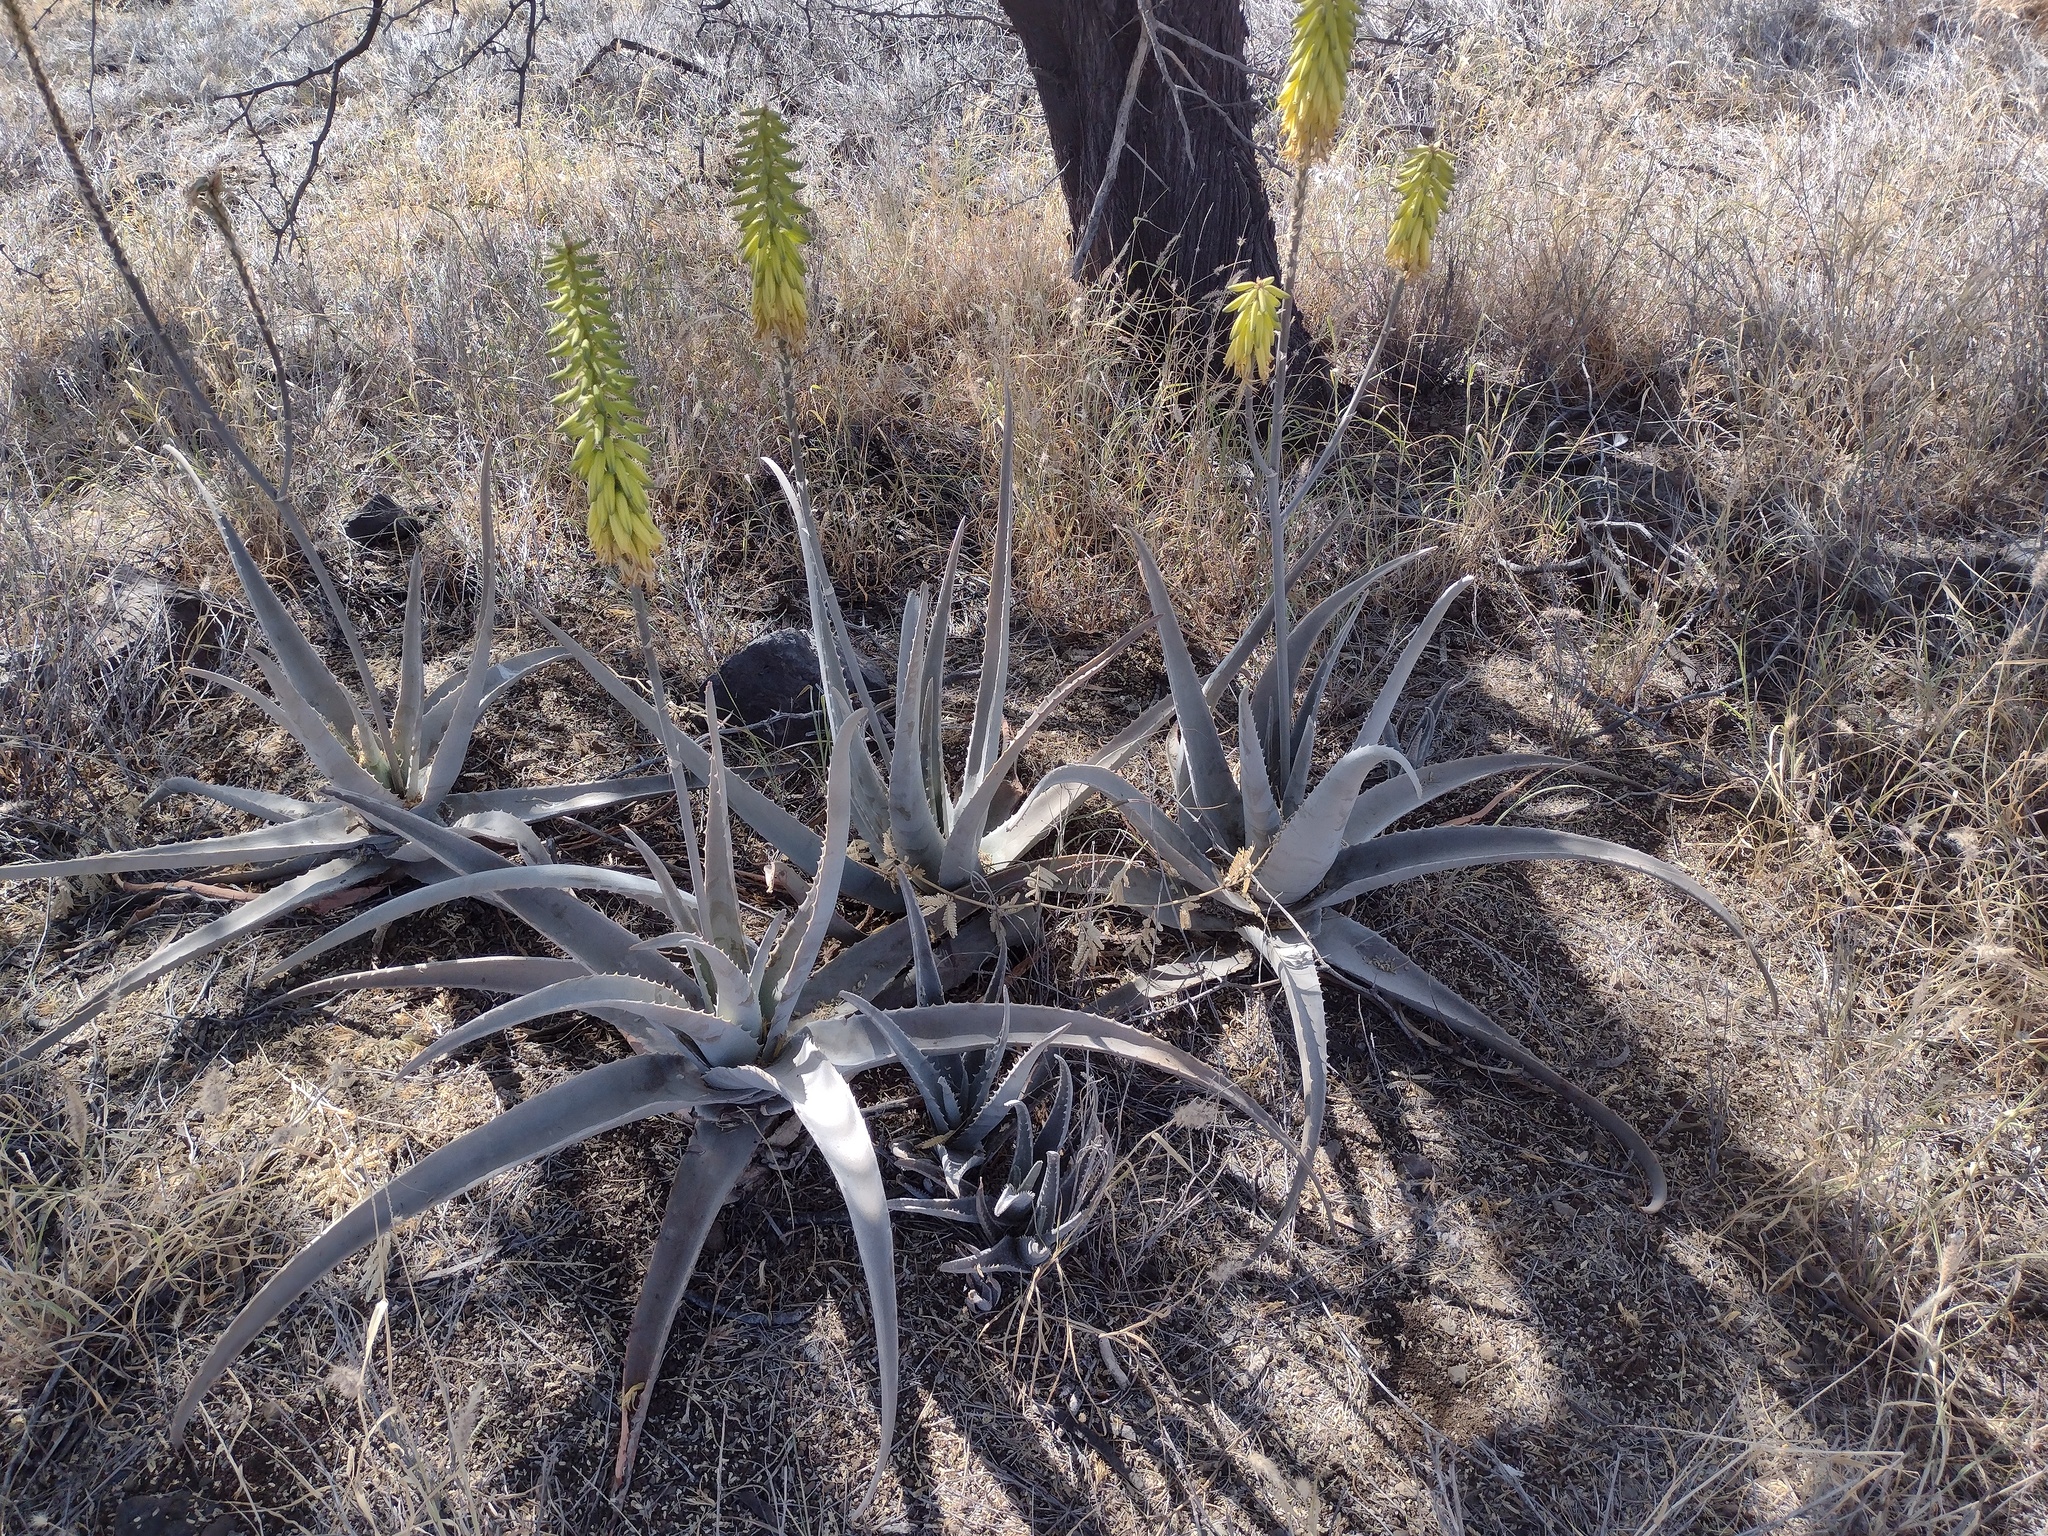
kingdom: Plantae
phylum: Tracheophyta
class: Liliopsida
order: Asparagales
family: Asphodelaceae
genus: Aloe
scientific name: Aloe vera
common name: Barbados aloe
